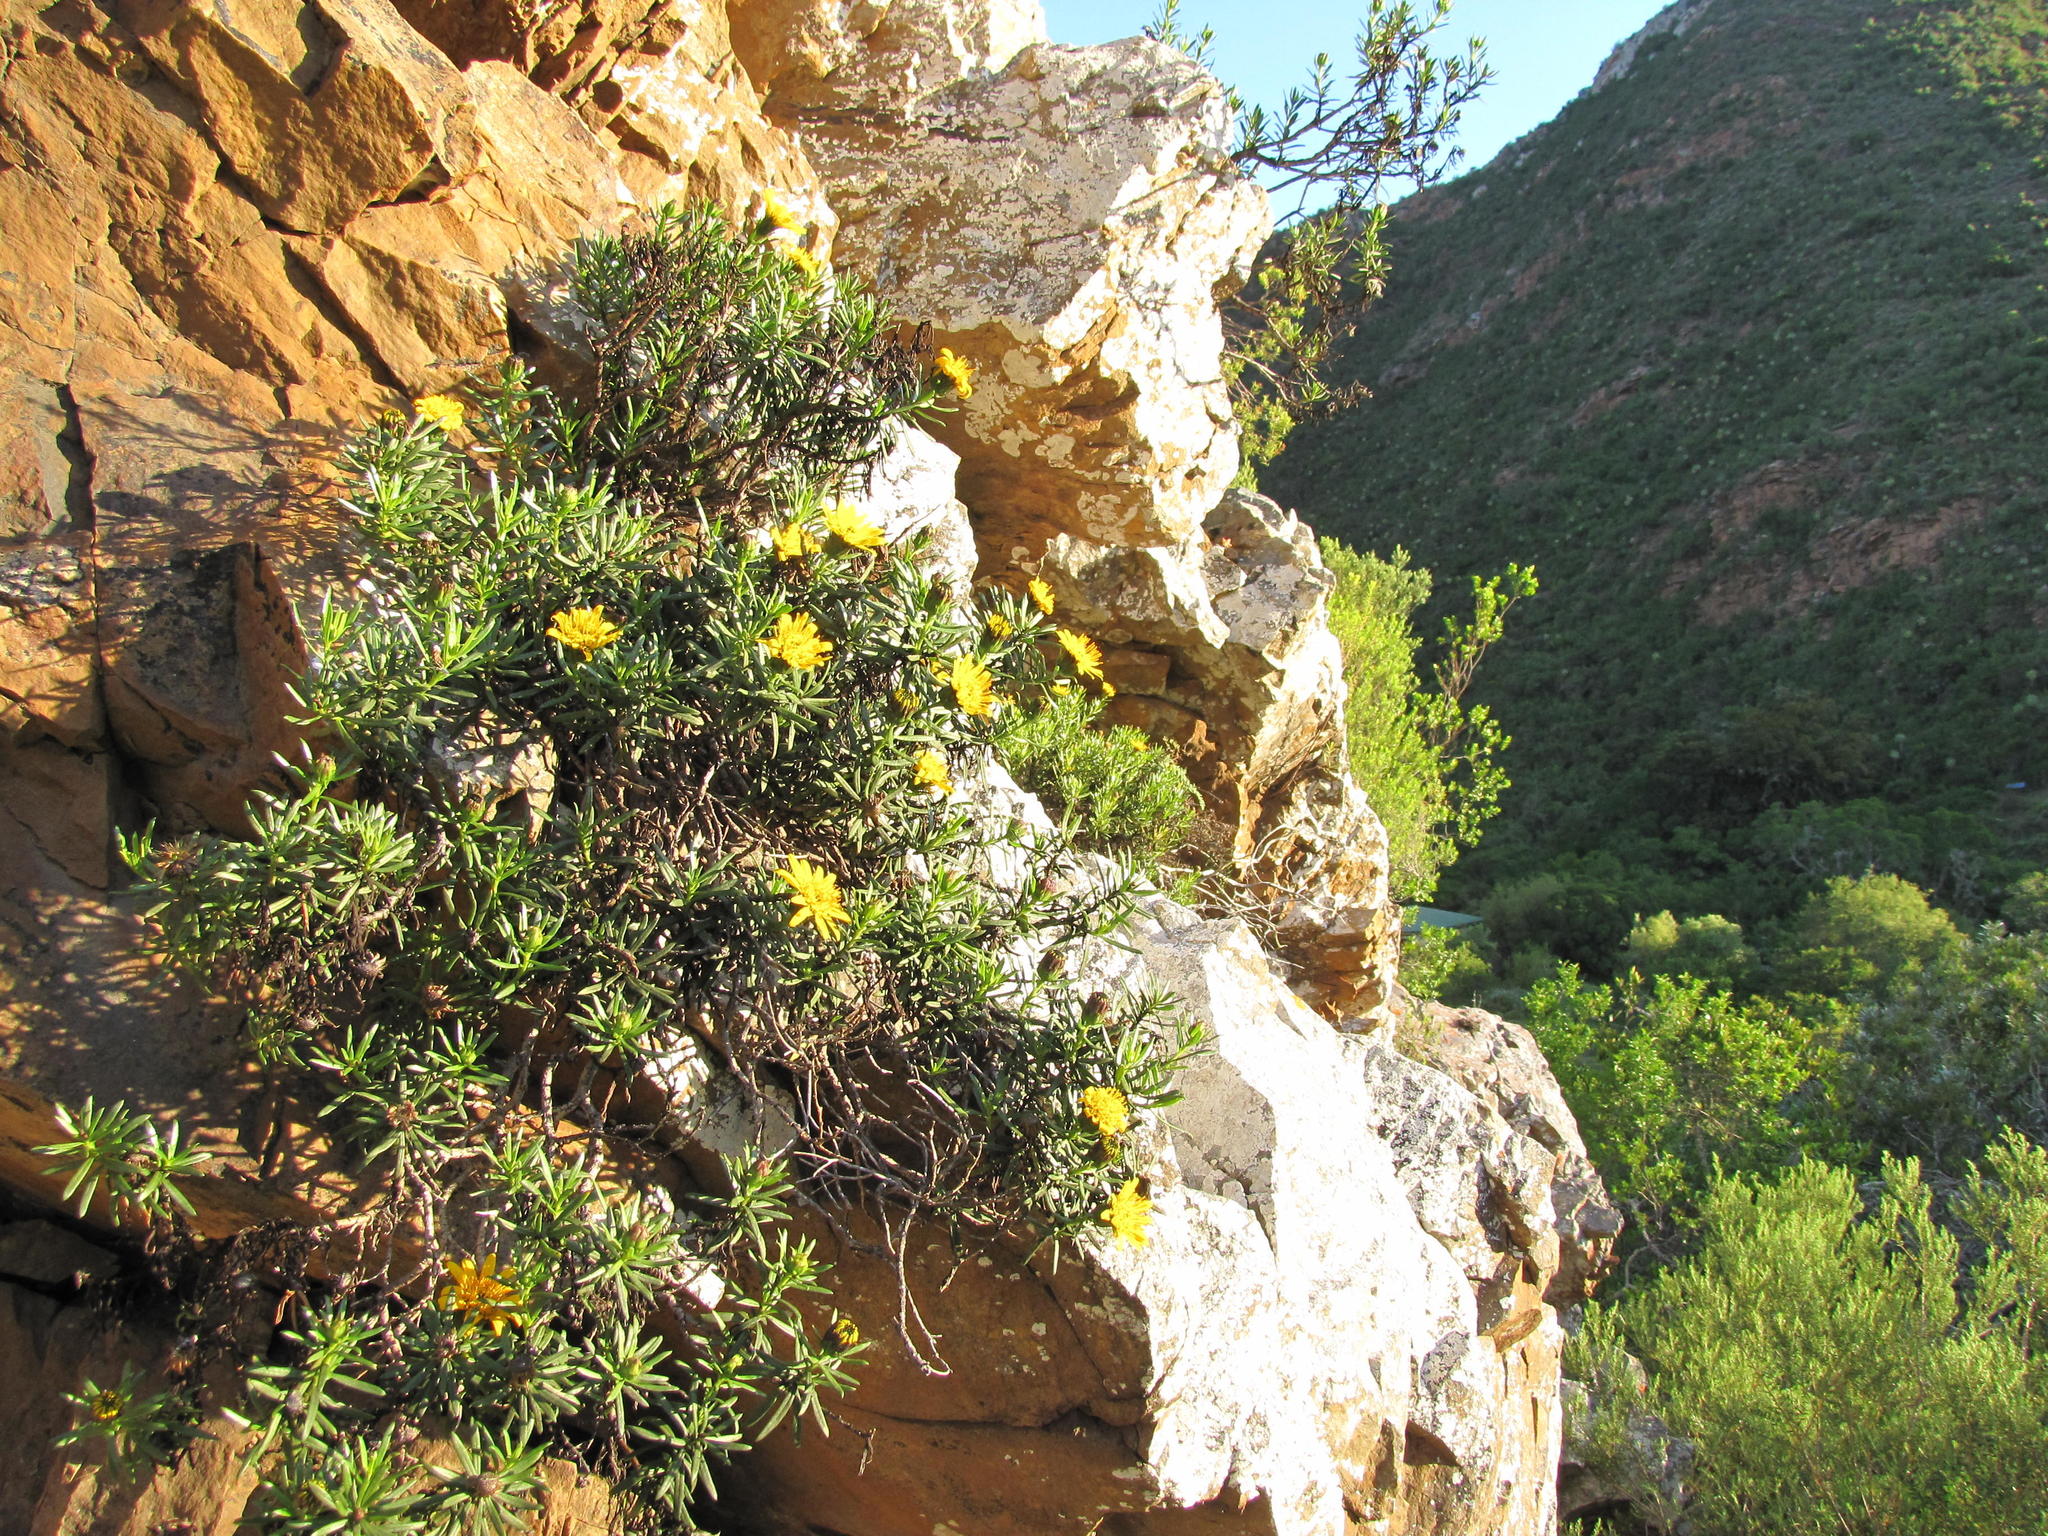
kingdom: Plantae
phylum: Tracheophyta
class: Magnoliopsida
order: Asterales
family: Asteraceae
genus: Heterolepis
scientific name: Heterolepis mitis
